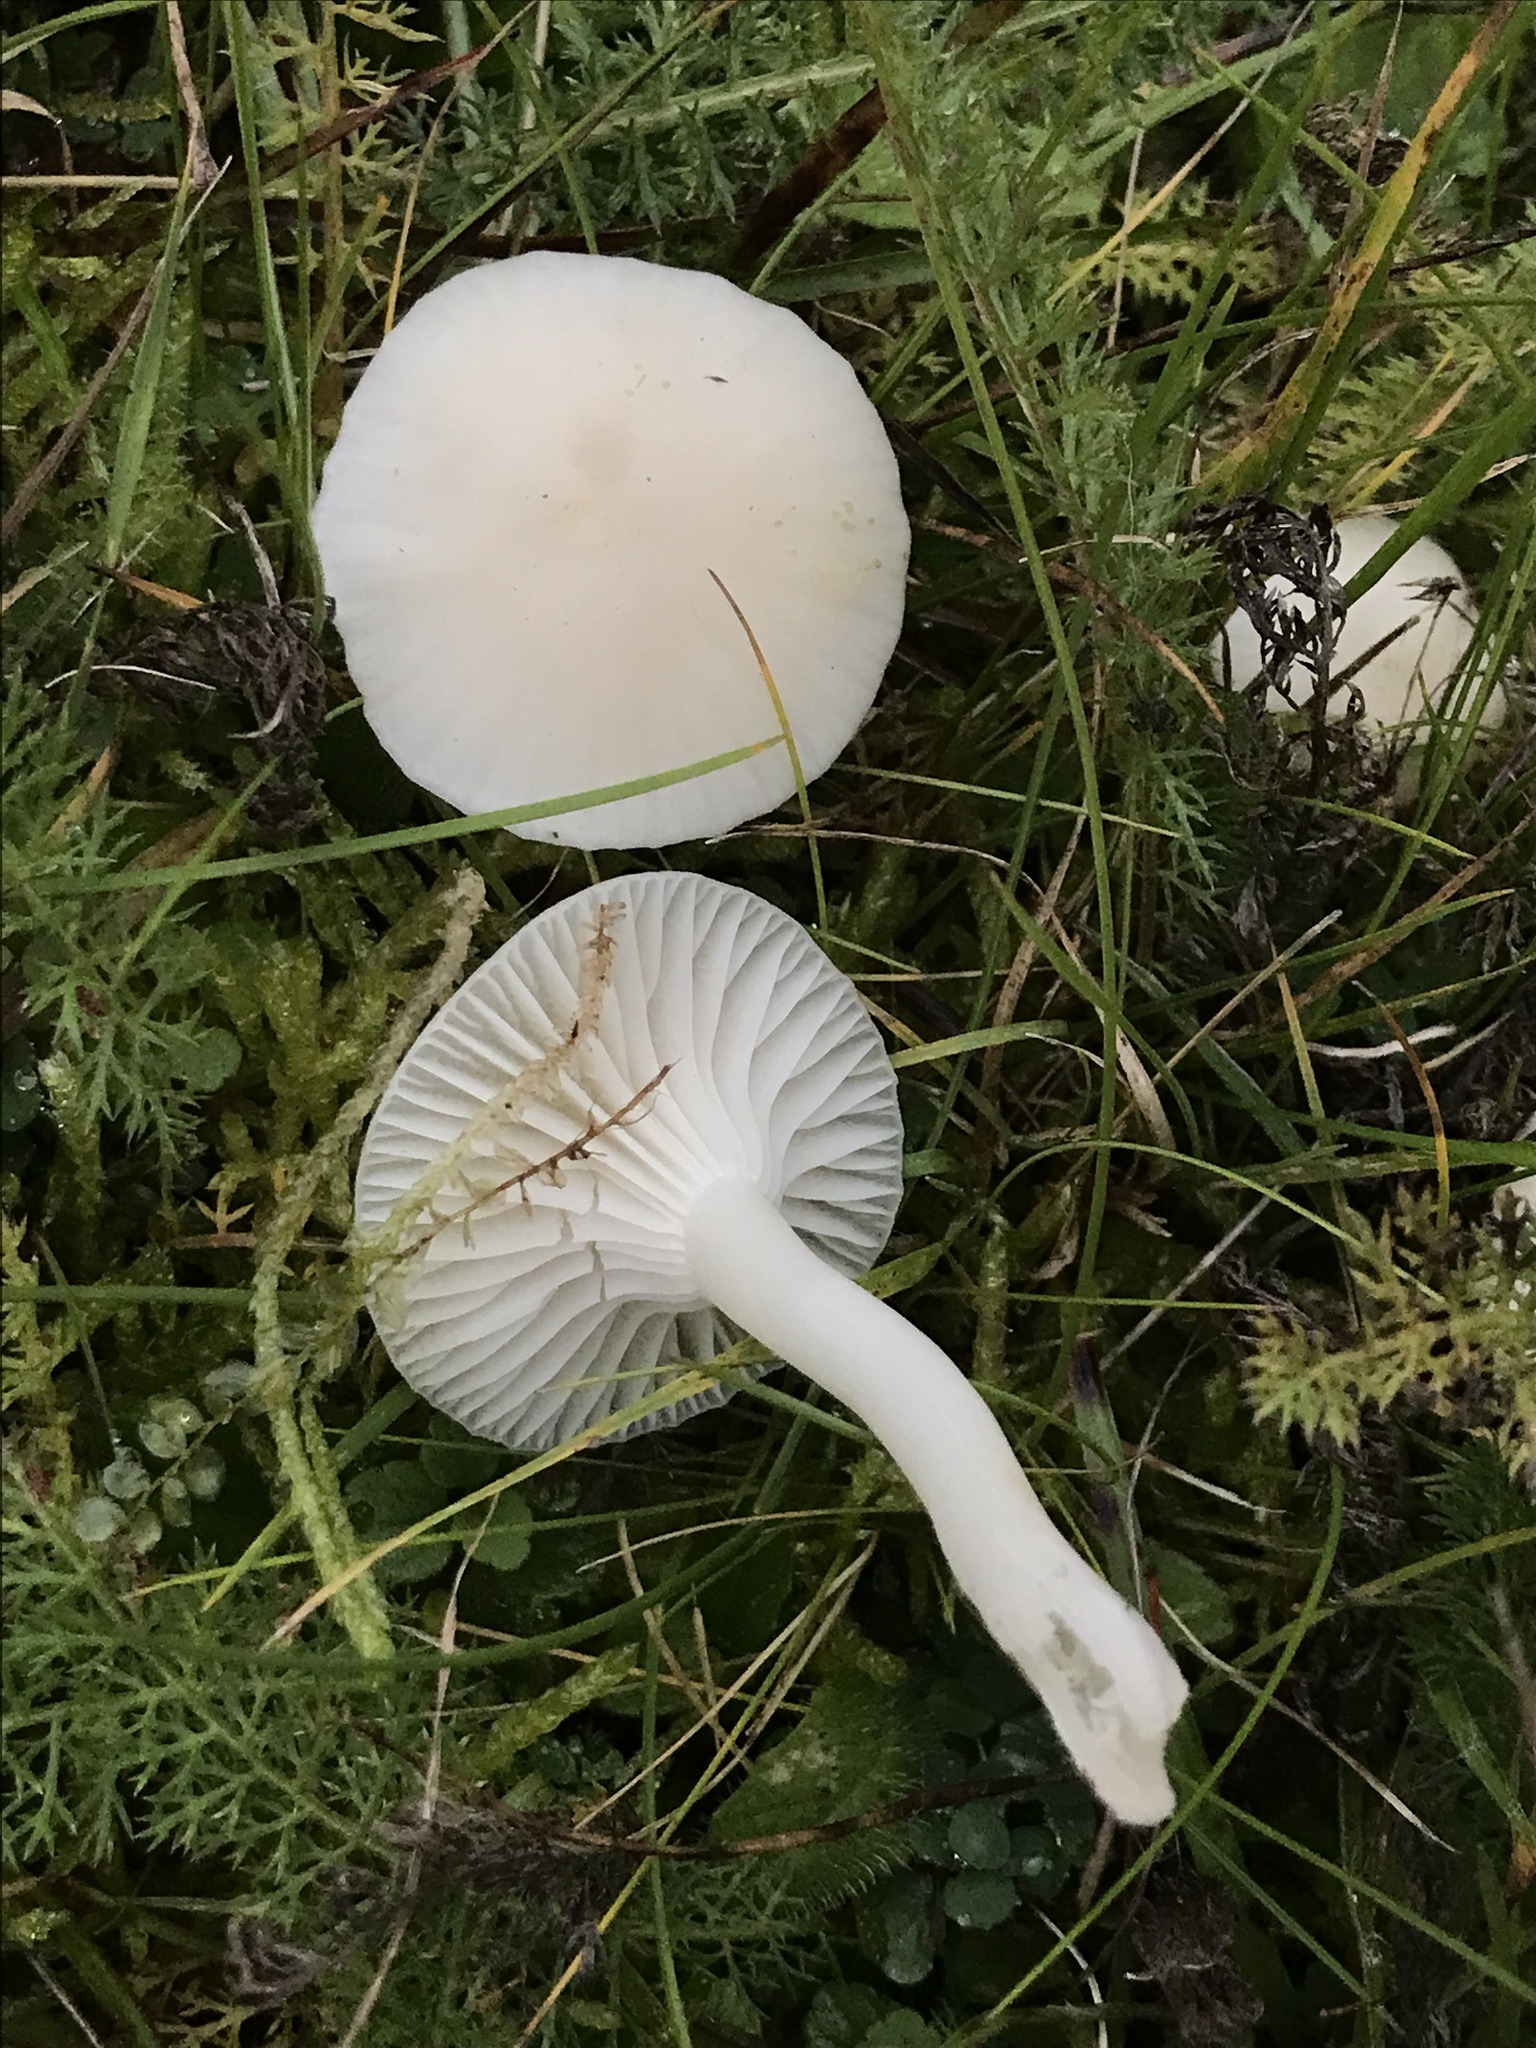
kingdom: Fungi
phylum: Basidiomycota
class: Agaricomycetes
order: Agaricales
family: Hygrophoraceae
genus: Cuphophyllus
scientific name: Cuphophyllus virgineus
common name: Snowy waxcap
